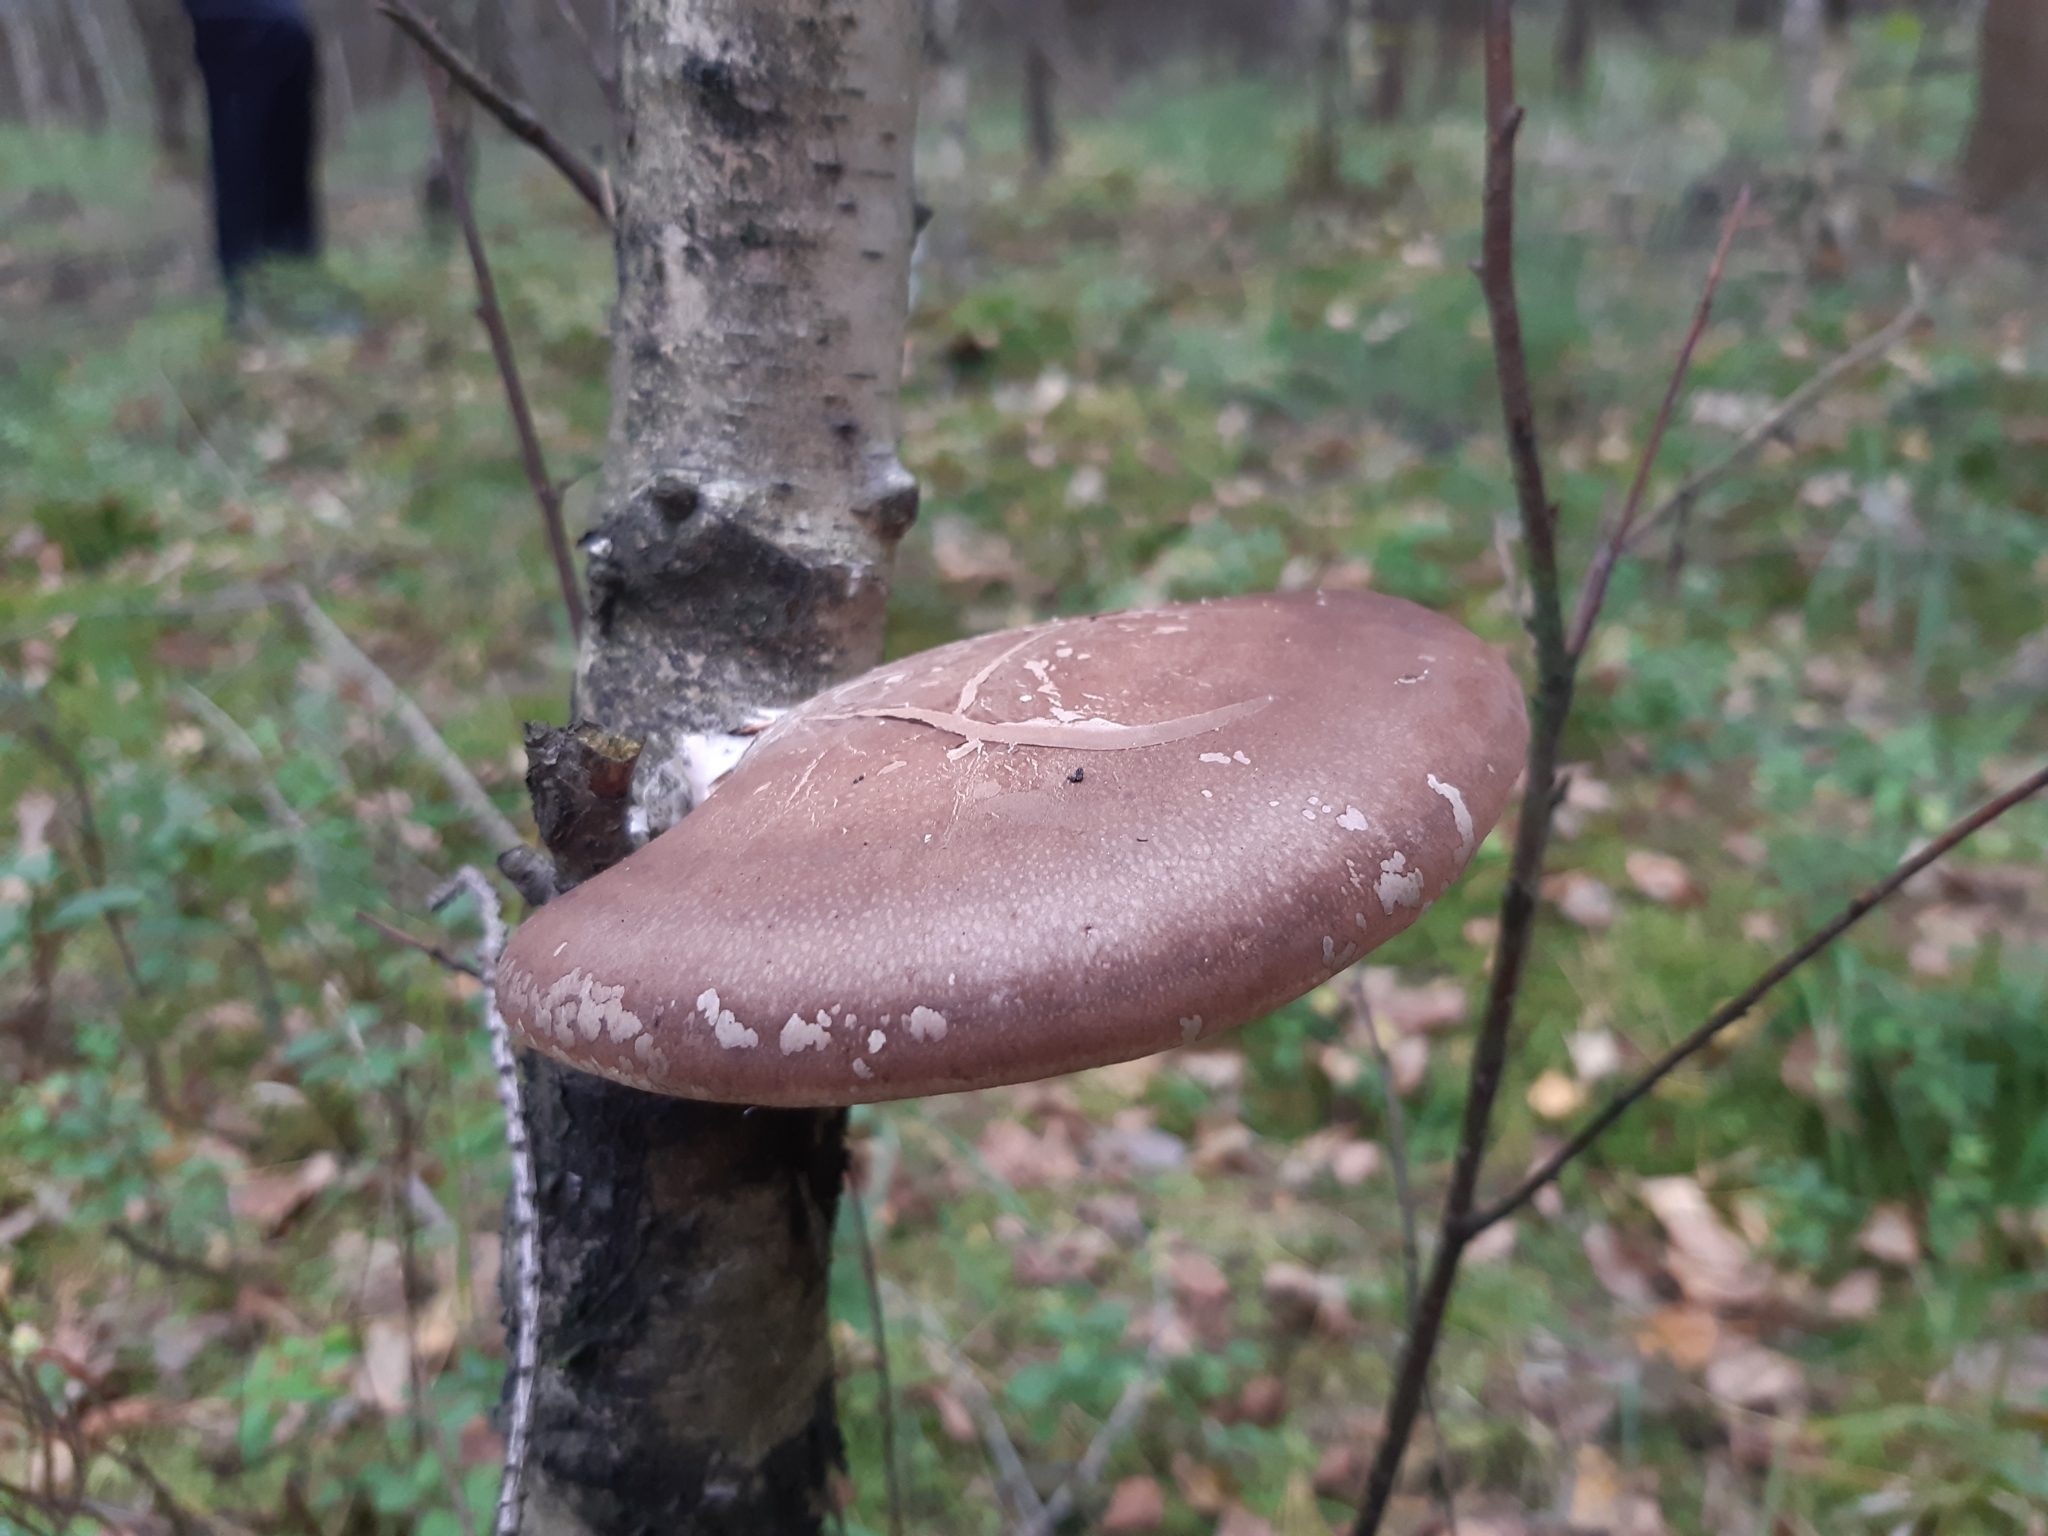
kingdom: Fungi
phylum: Basidiomycota
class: Agaricomycetes
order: Polyporales
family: Fomitopsidaceae
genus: Fomitopsis
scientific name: Fomitopsis betulina
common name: Birch polypore
